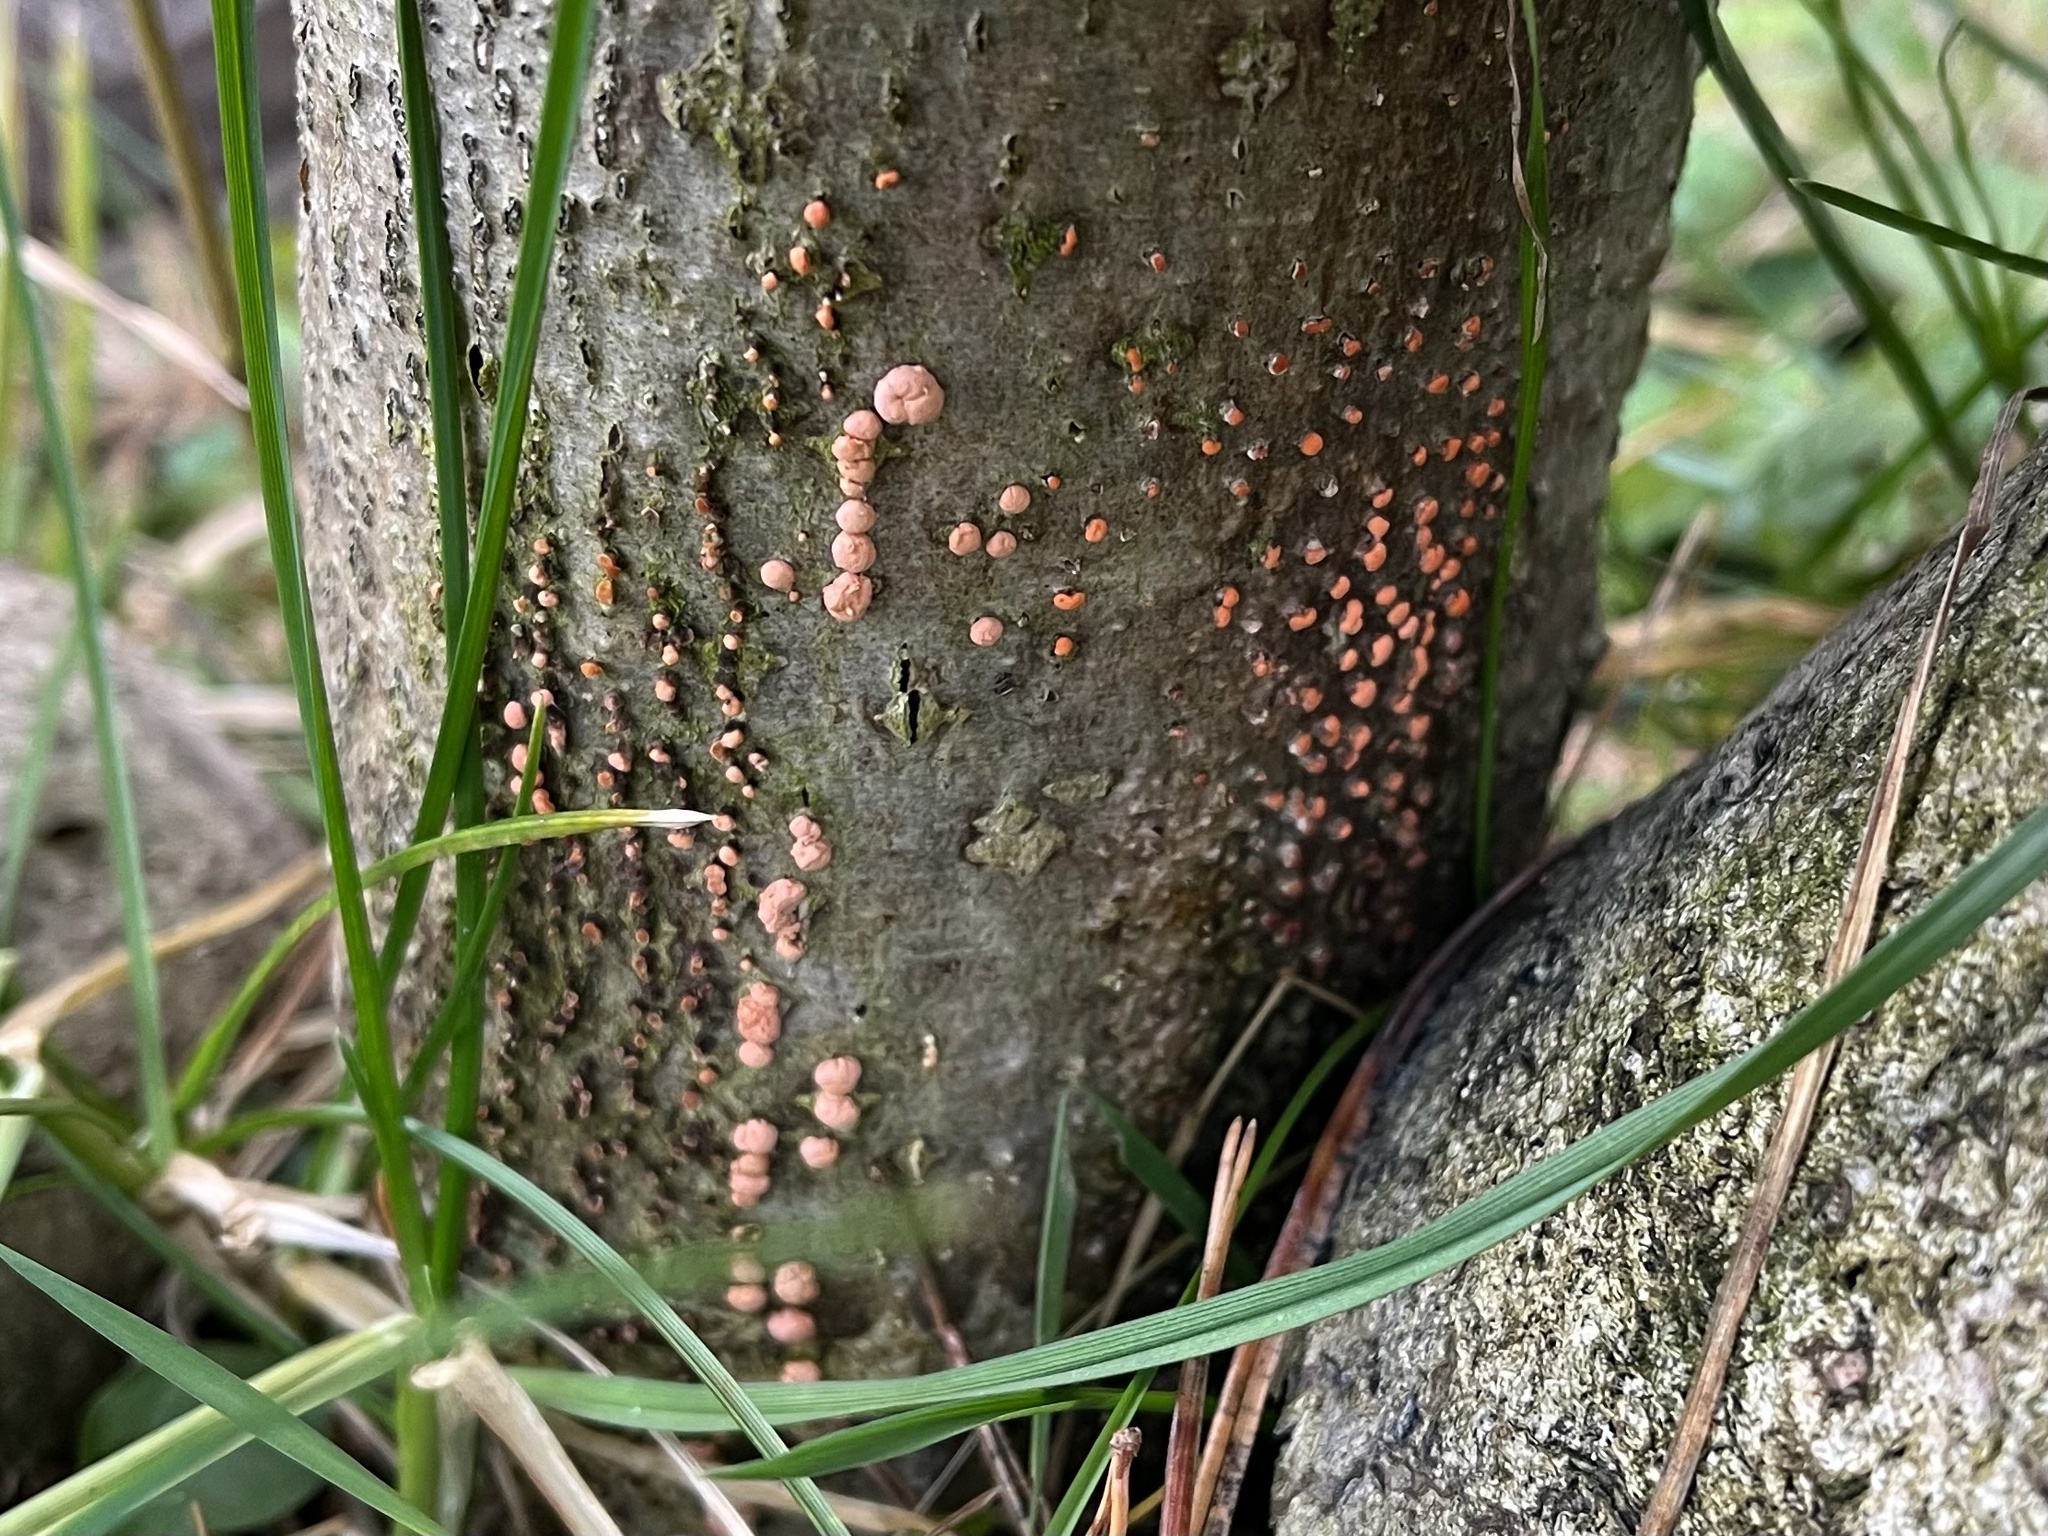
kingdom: Fungi
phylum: Ascomycota
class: Sordariomycetes
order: Hypocreales
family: Nectriaceae
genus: Nectria
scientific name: Nectria cinnabarina
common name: Coral spot
